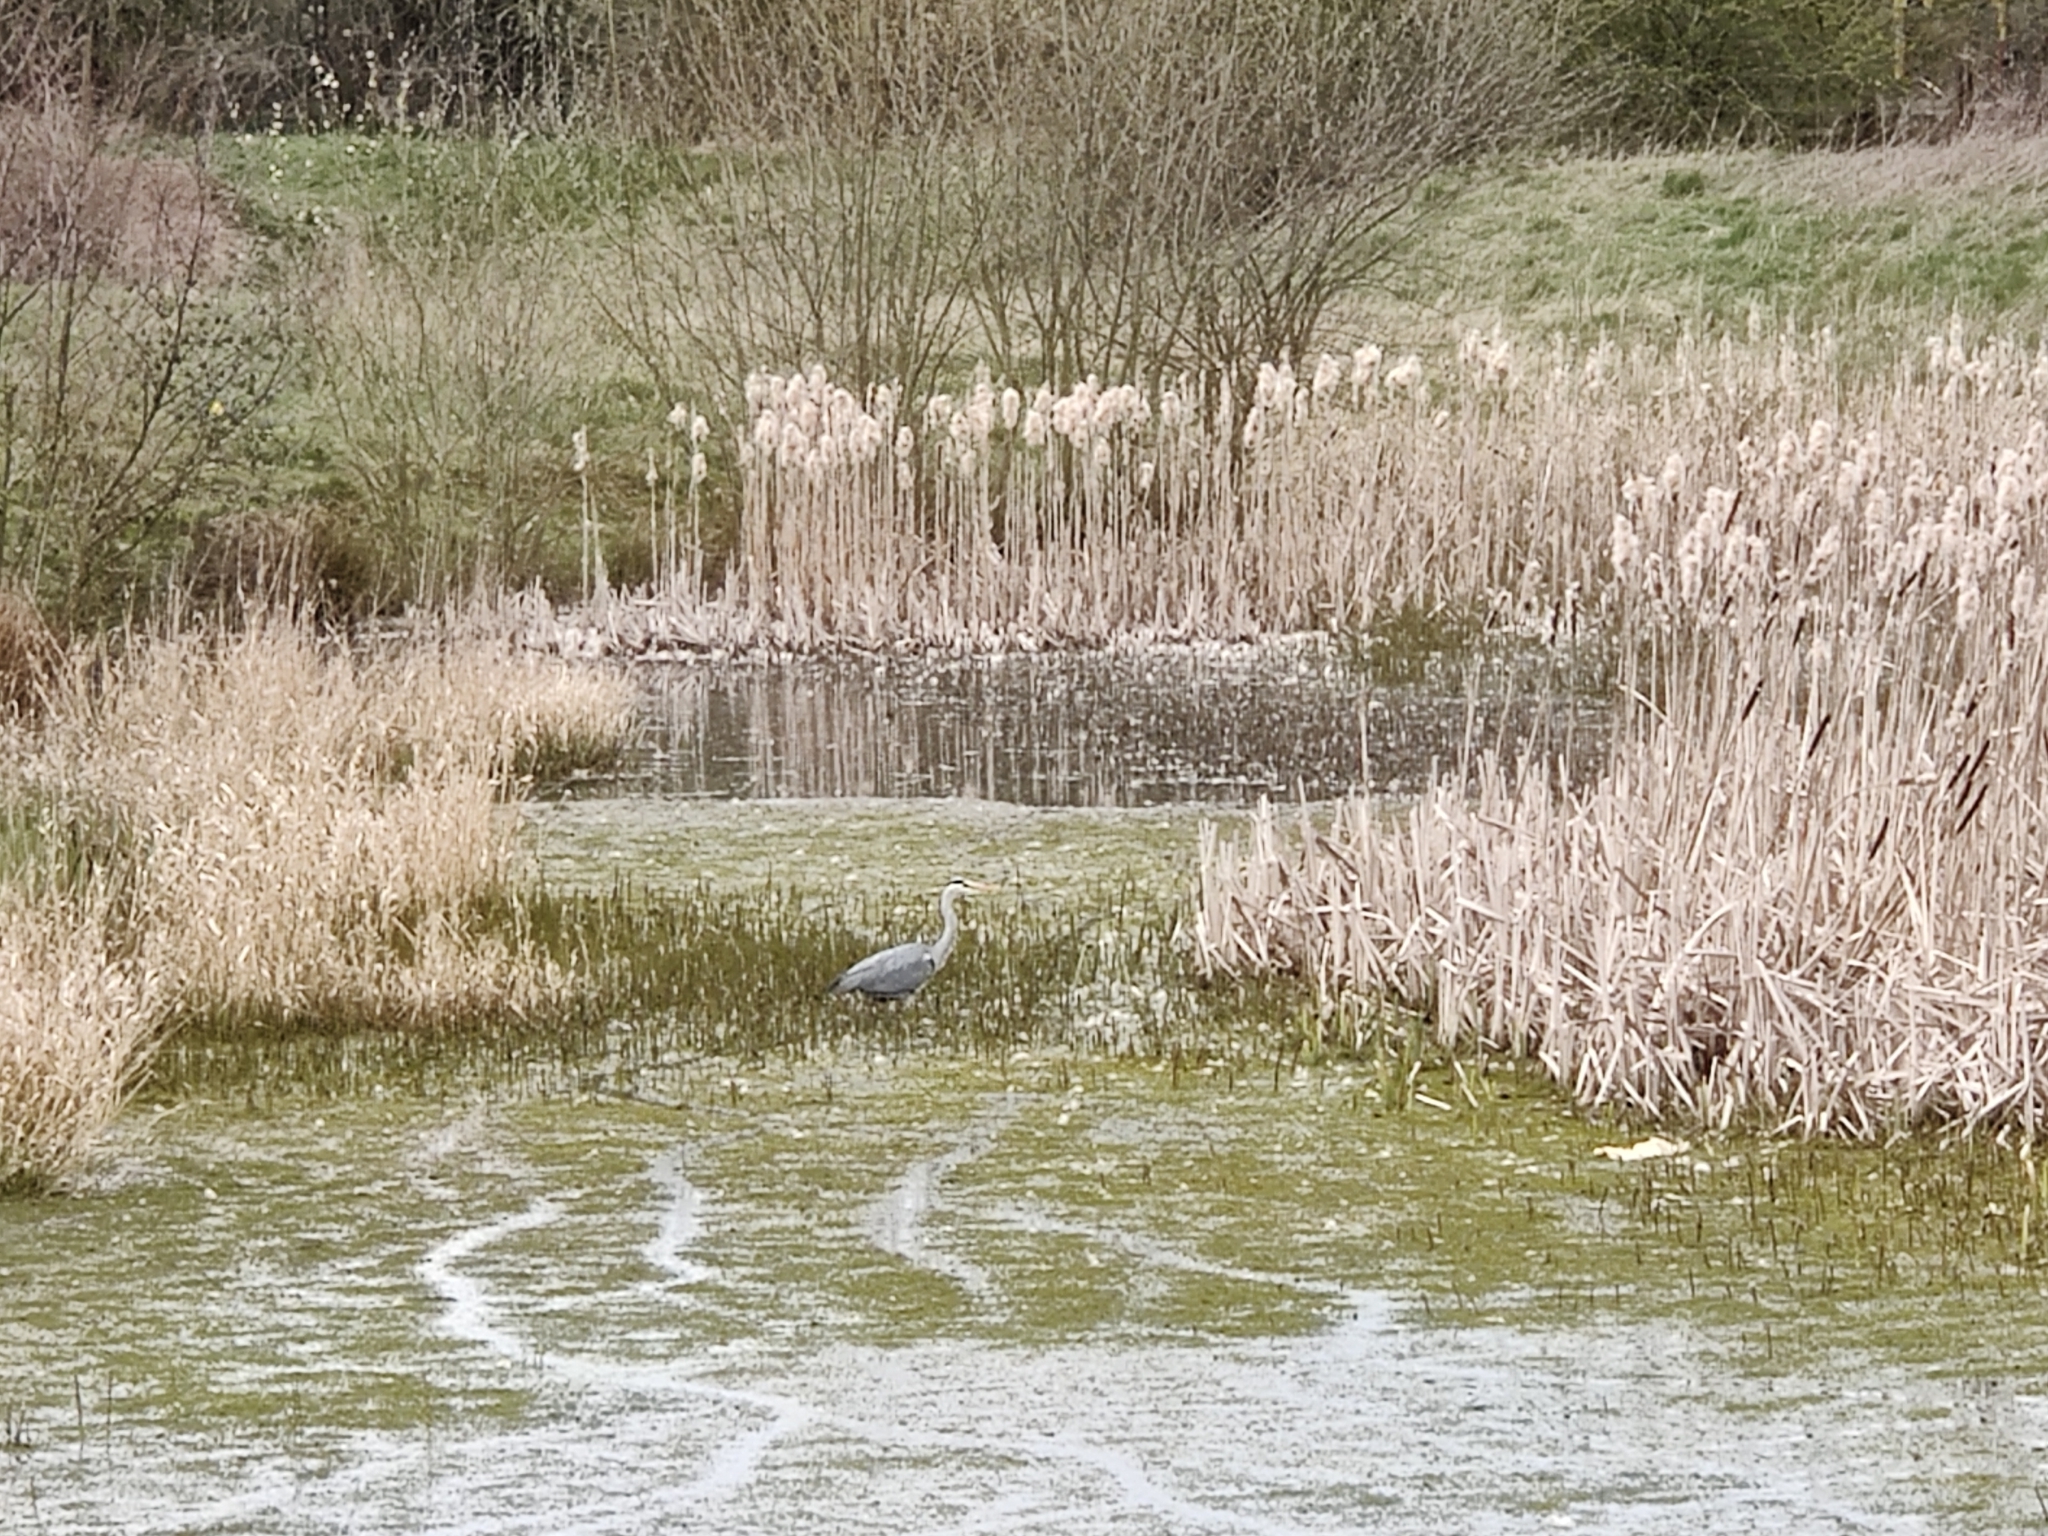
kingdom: Animalia
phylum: Chordata
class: Aves
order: Pelecaniformes
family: Ardeidae
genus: Ardea
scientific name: Ardea cinerea
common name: Grey heron
